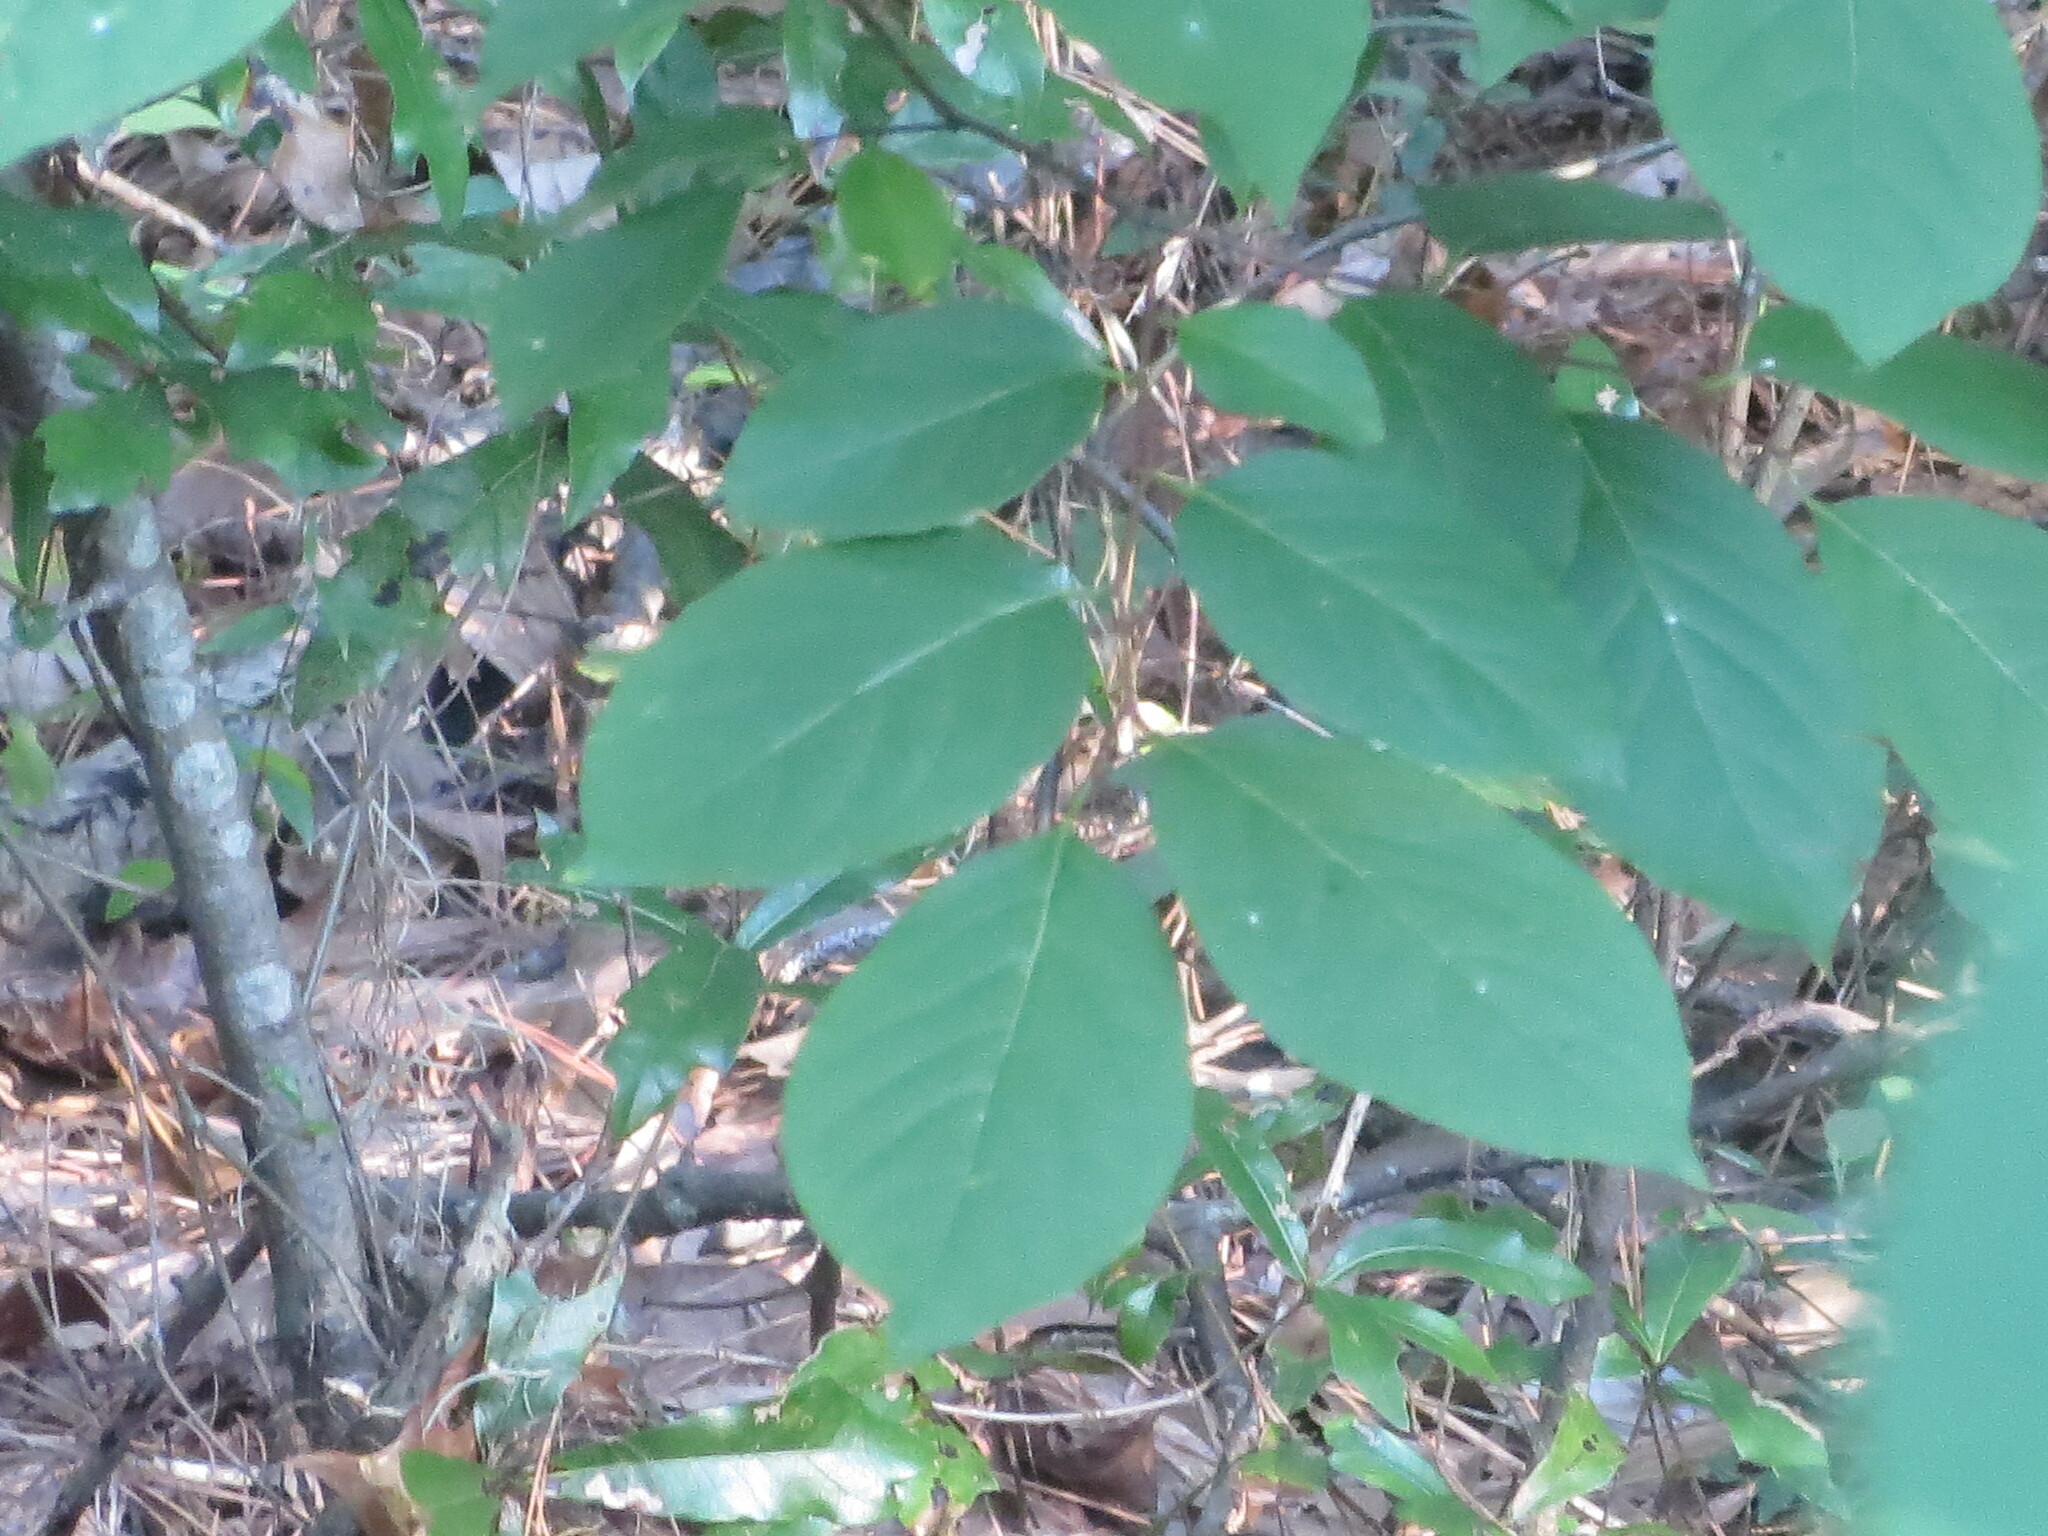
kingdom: Plantae
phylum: Tracheophyta
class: Magnoliopsida
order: Ericales
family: Ebenaceae
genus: Diospyros
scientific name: Diospyros virginiana
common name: Persimmon
